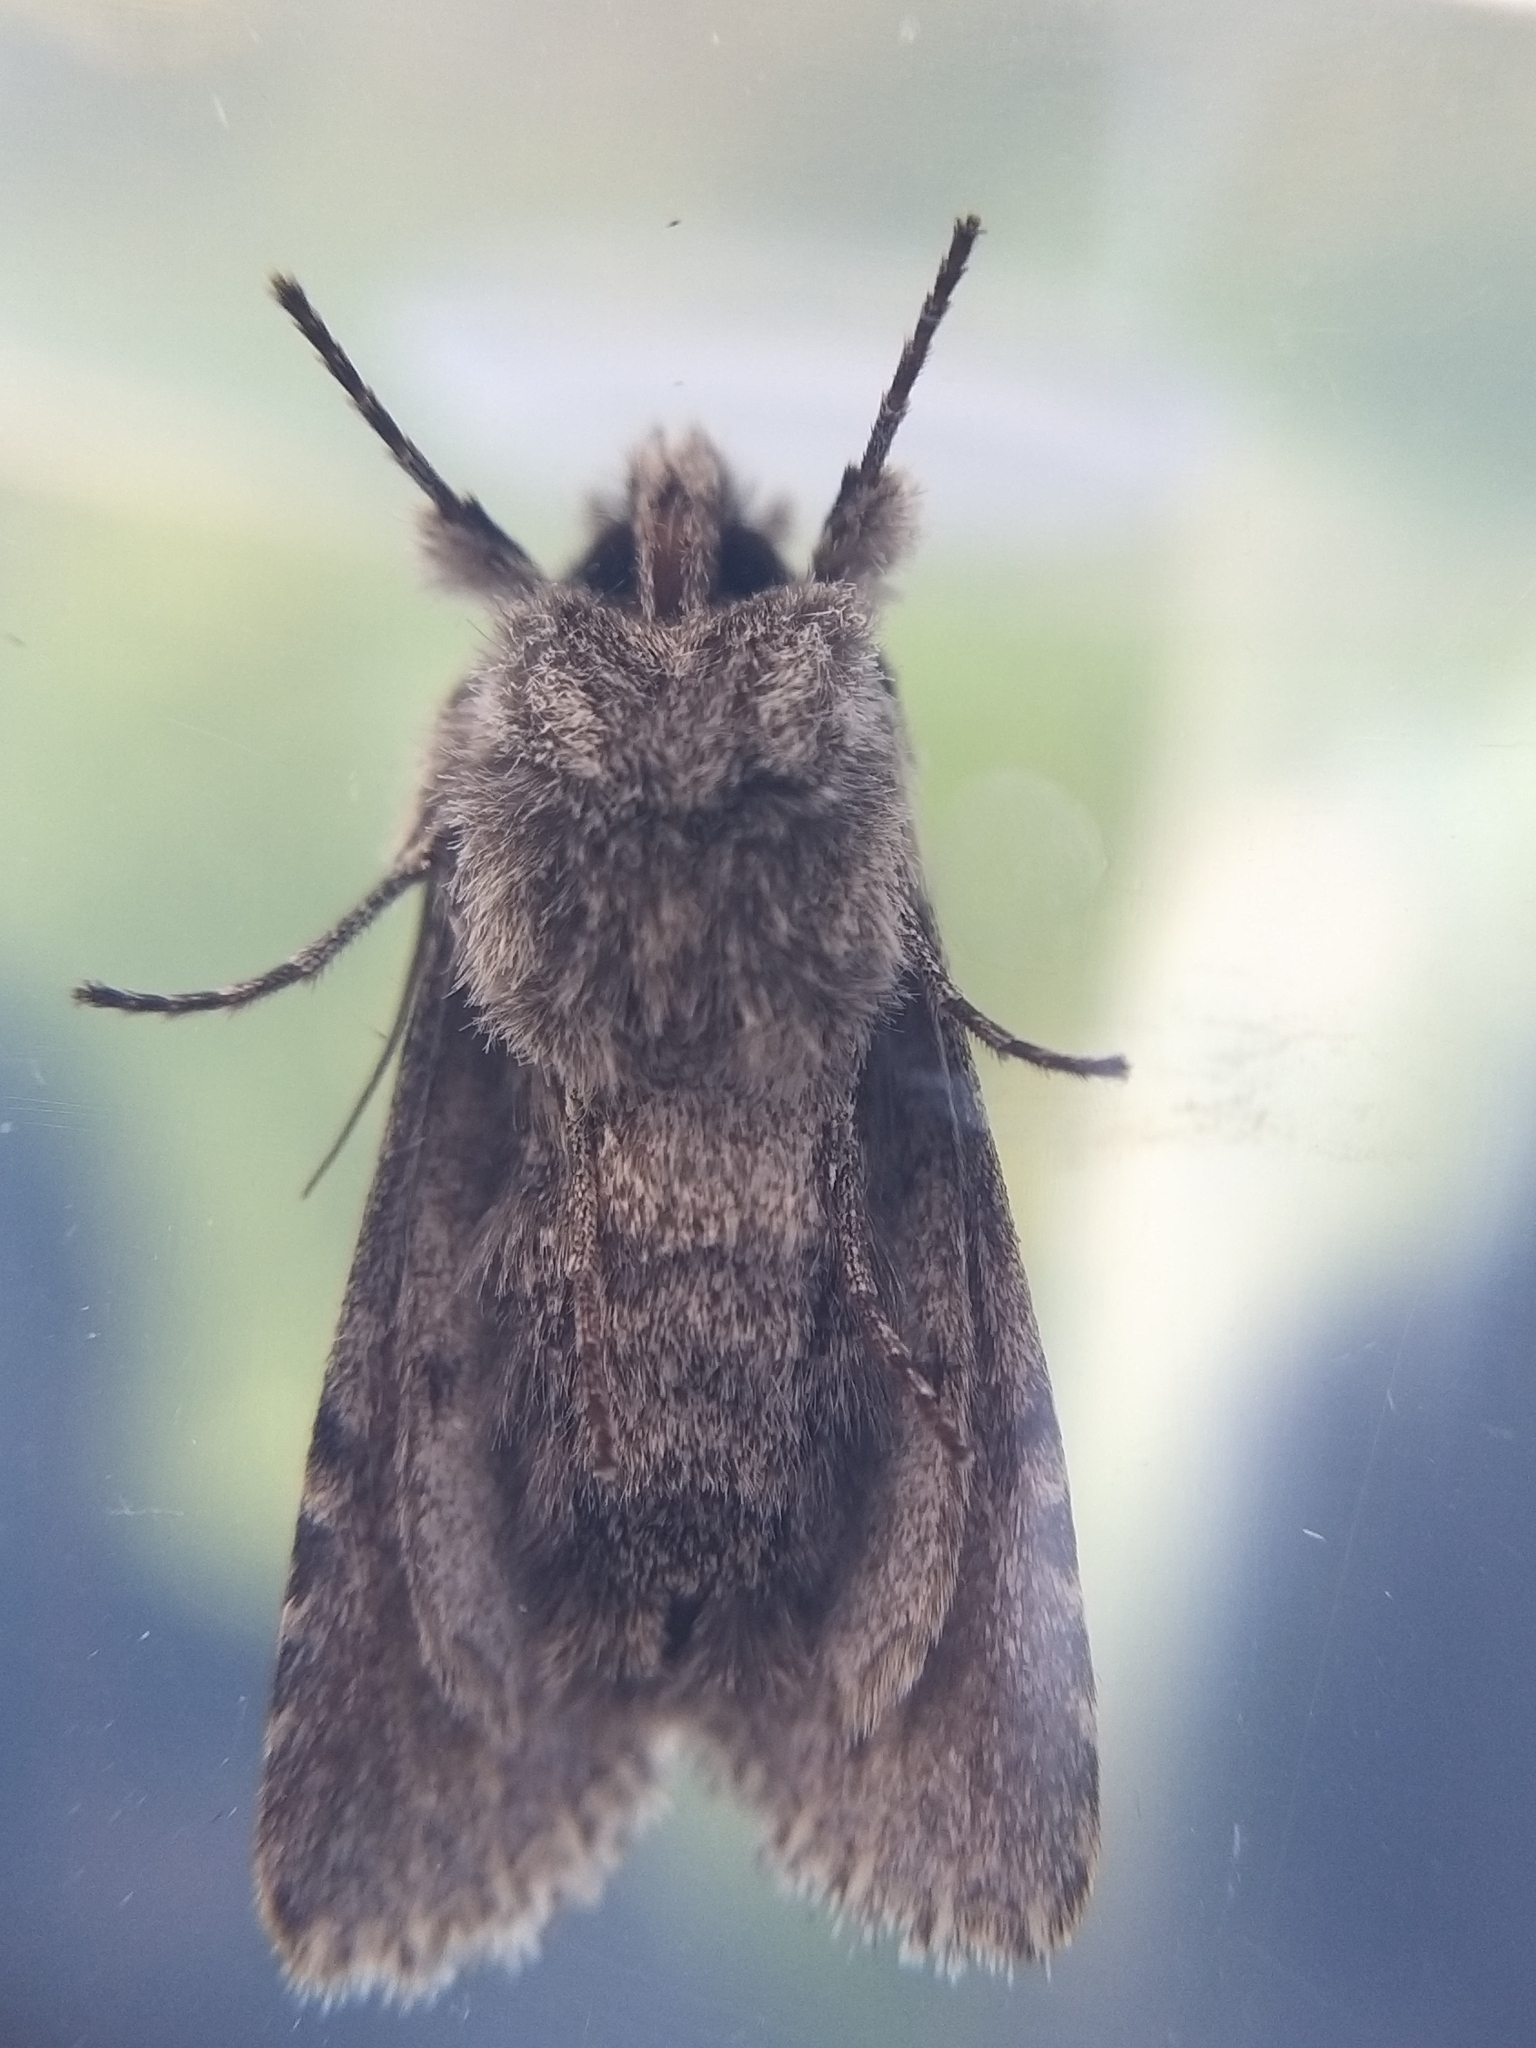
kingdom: Animalia
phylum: Arthropoda
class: Insecta
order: Lepidoptera
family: Noctuidae
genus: Xylocampa
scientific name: Xylocampa areola
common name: Early grey
